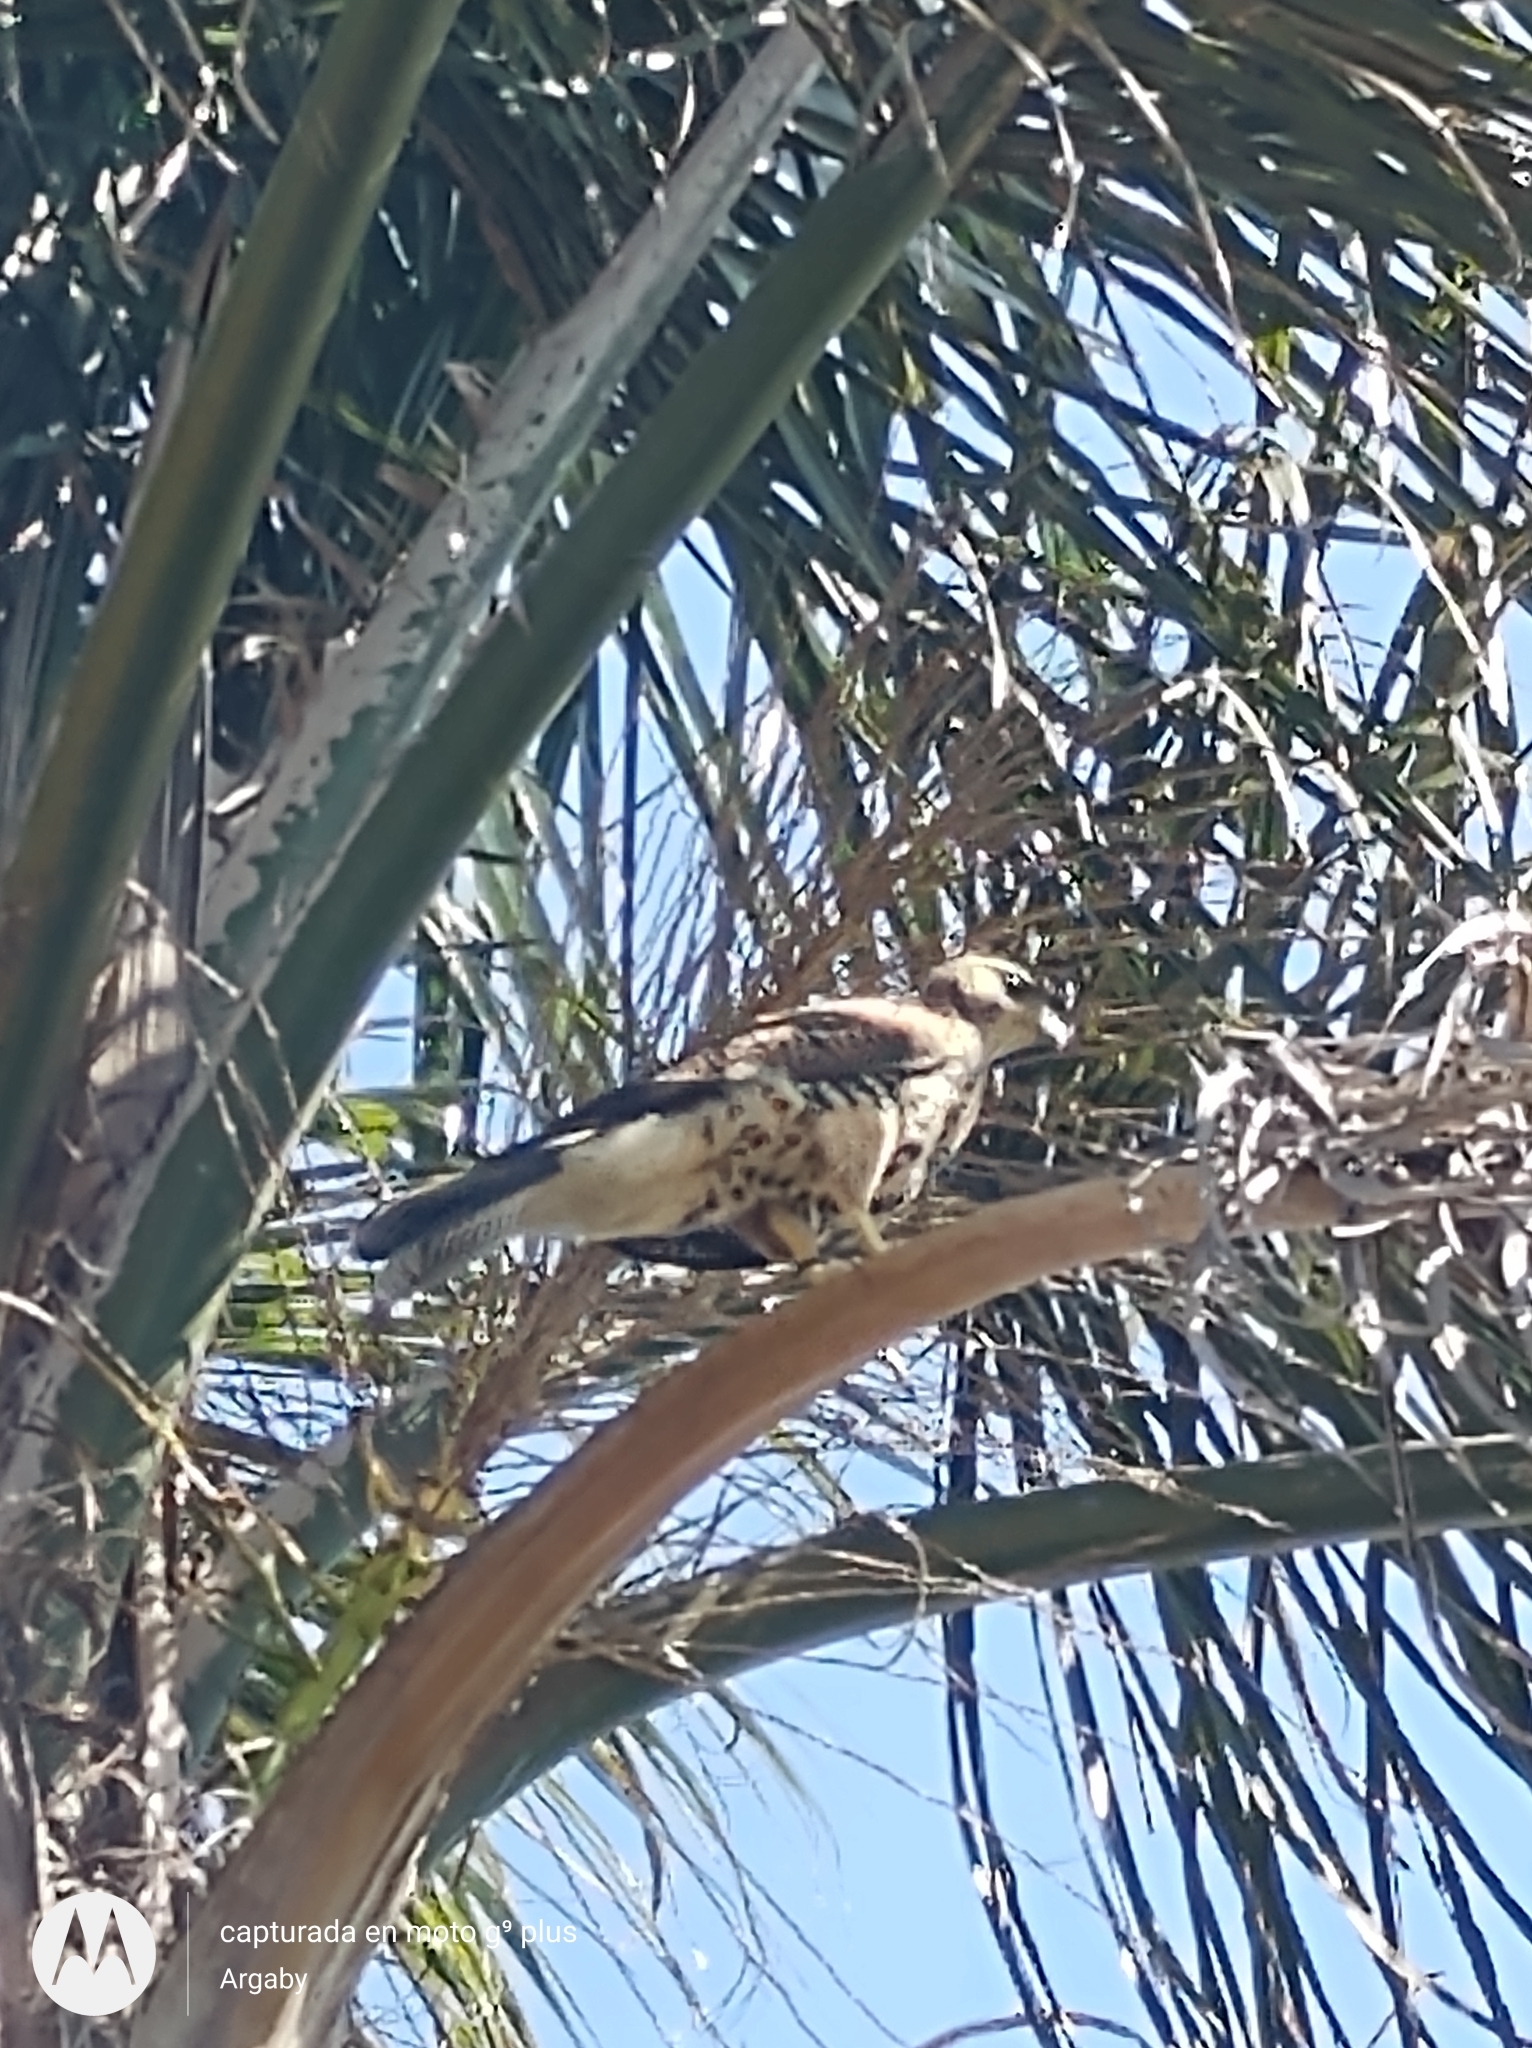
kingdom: Animalia
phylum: Chordata
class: Aves
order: Accipitriformes
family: Accipitridae
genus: Parabuteo
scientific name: Parabuteo unicinctus
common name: Harris's hawk
